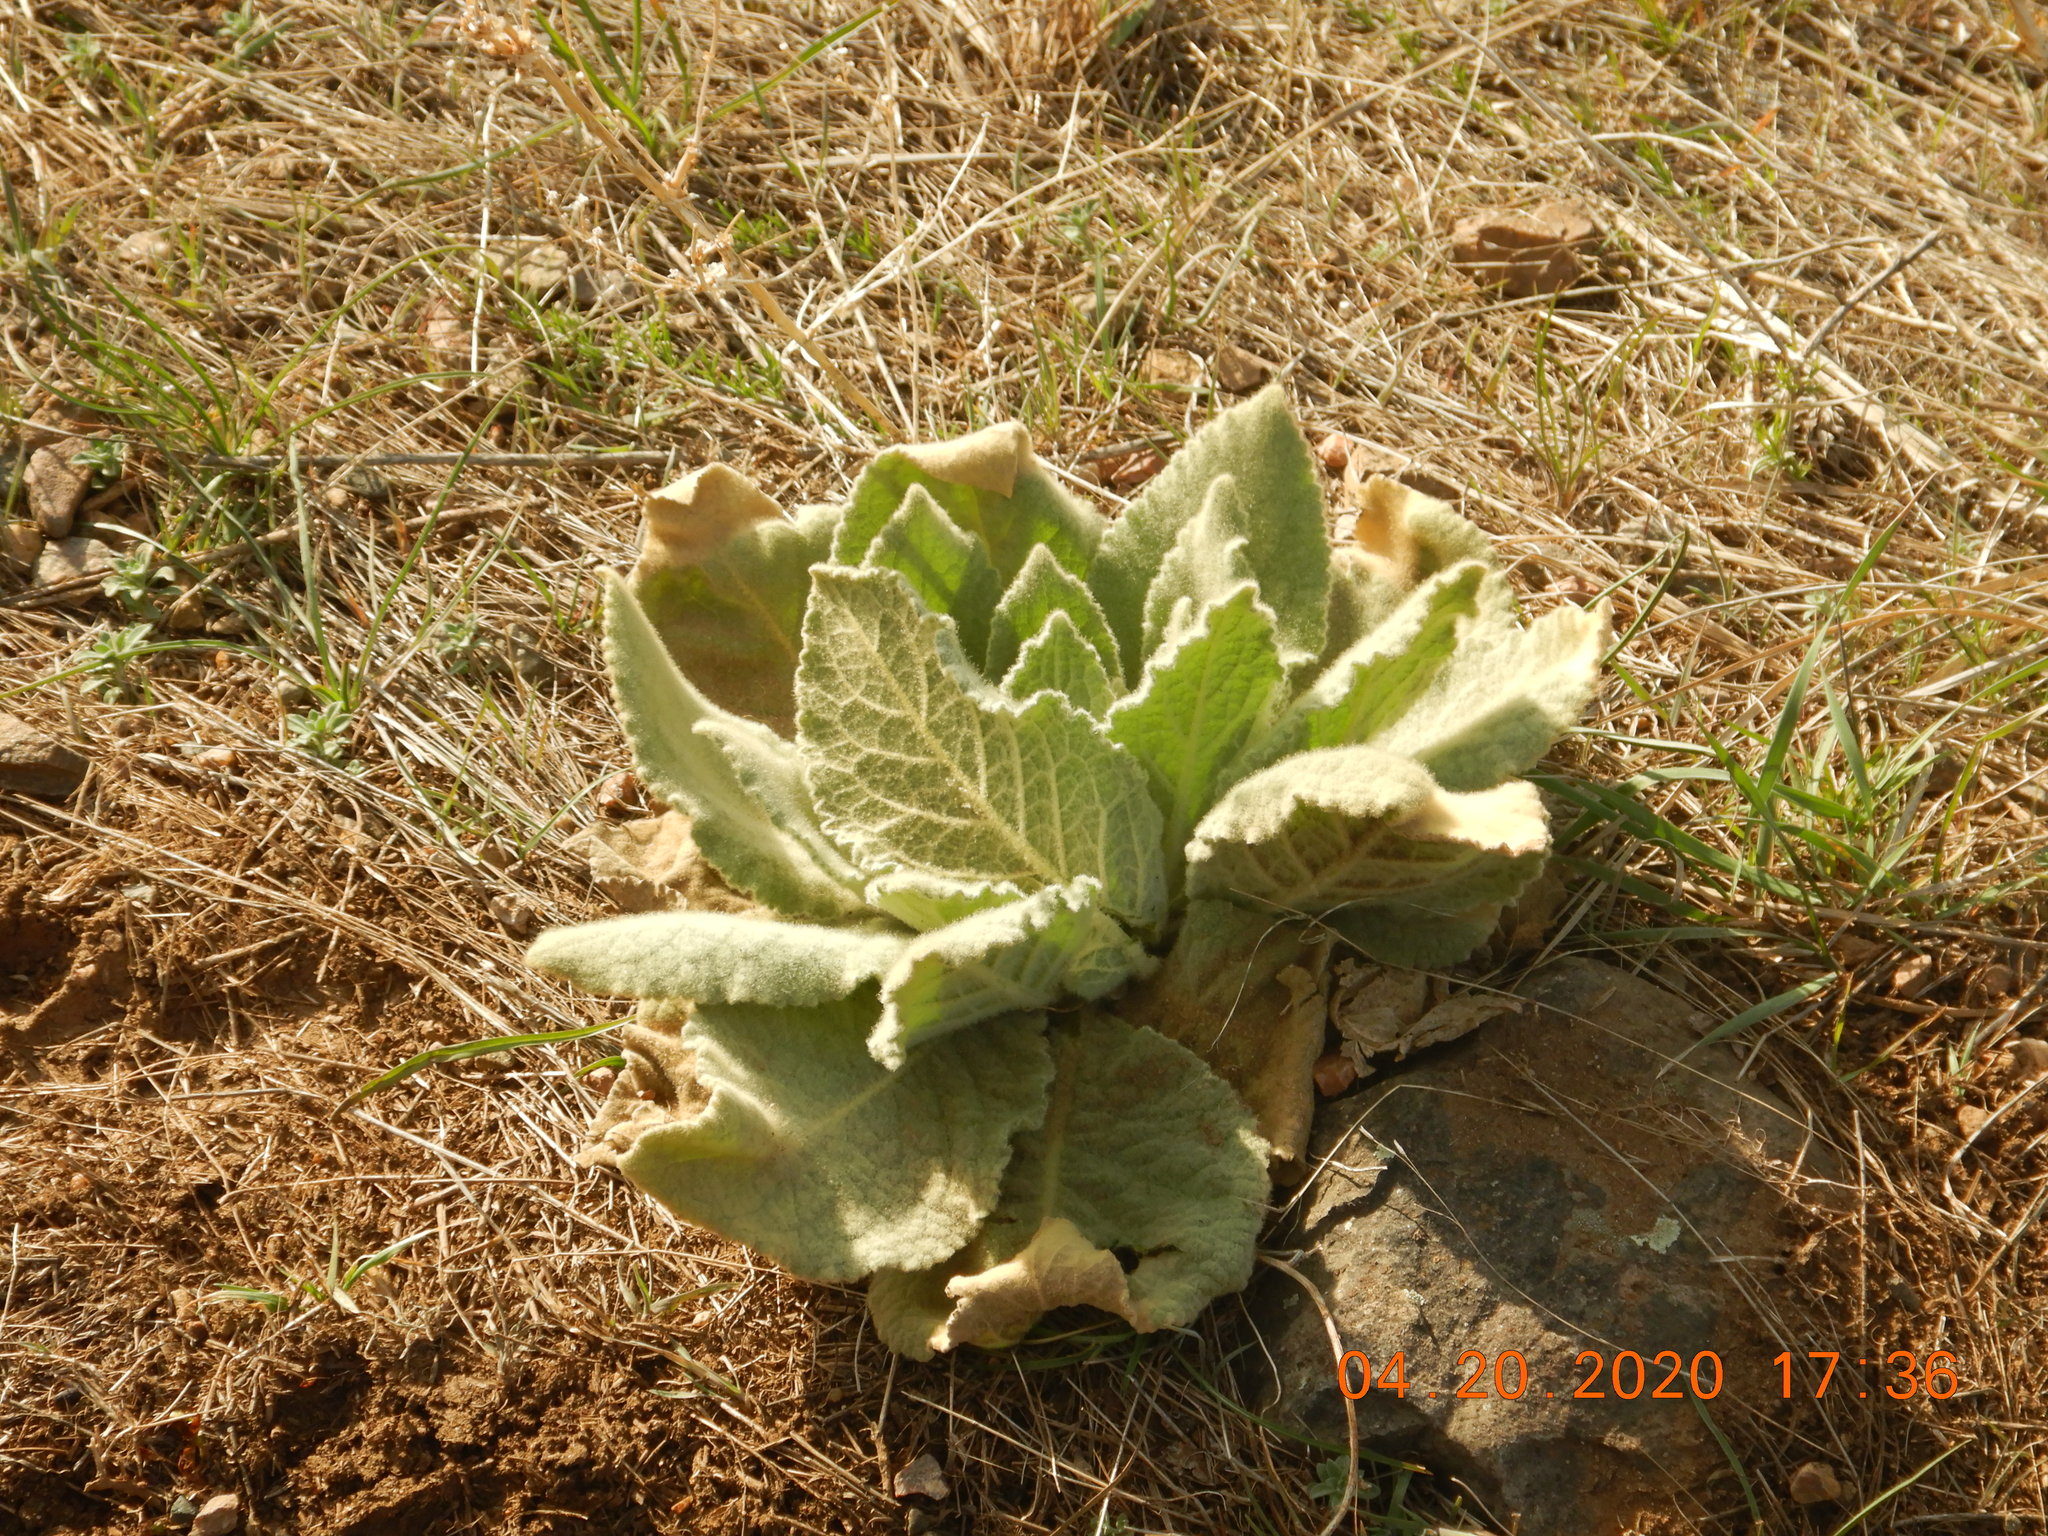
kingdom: Plantae
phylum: Tracheophyta
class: Magnoliopsida
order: Lamiales
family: Scrophulariaceae
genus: Verbascum
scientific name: Verbascum thapsus
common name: Common mullein
